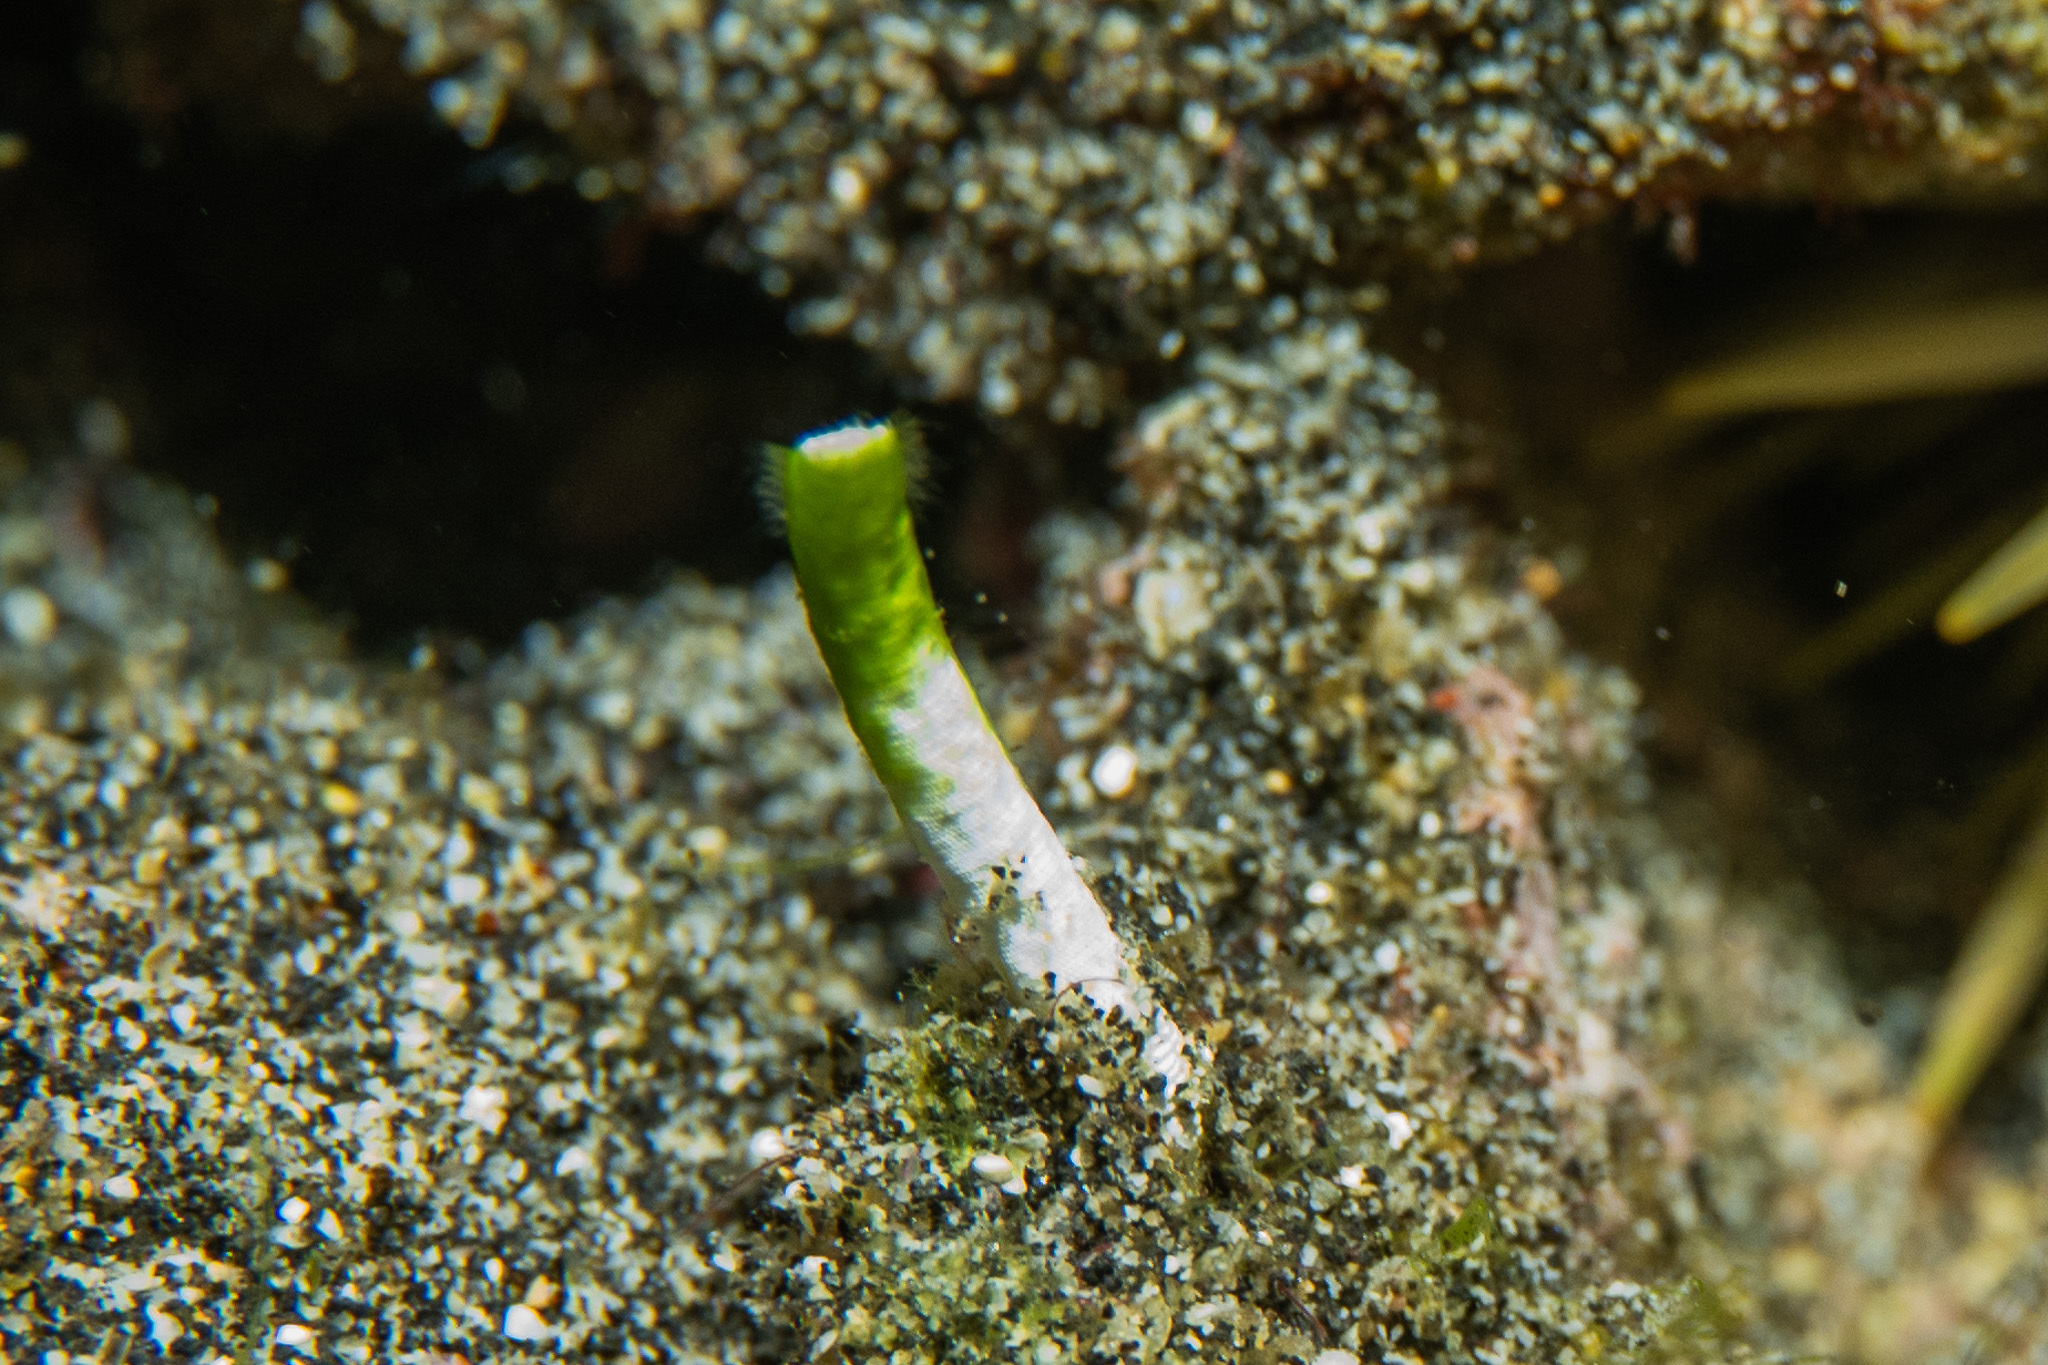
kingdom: Plantae
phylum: Chlorophyta
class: Ulvophyceae
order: Dasycladales
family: Dasycladaceae
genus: Neomeris
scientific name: Neomeris annulata
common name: Fuzzy tip algae
